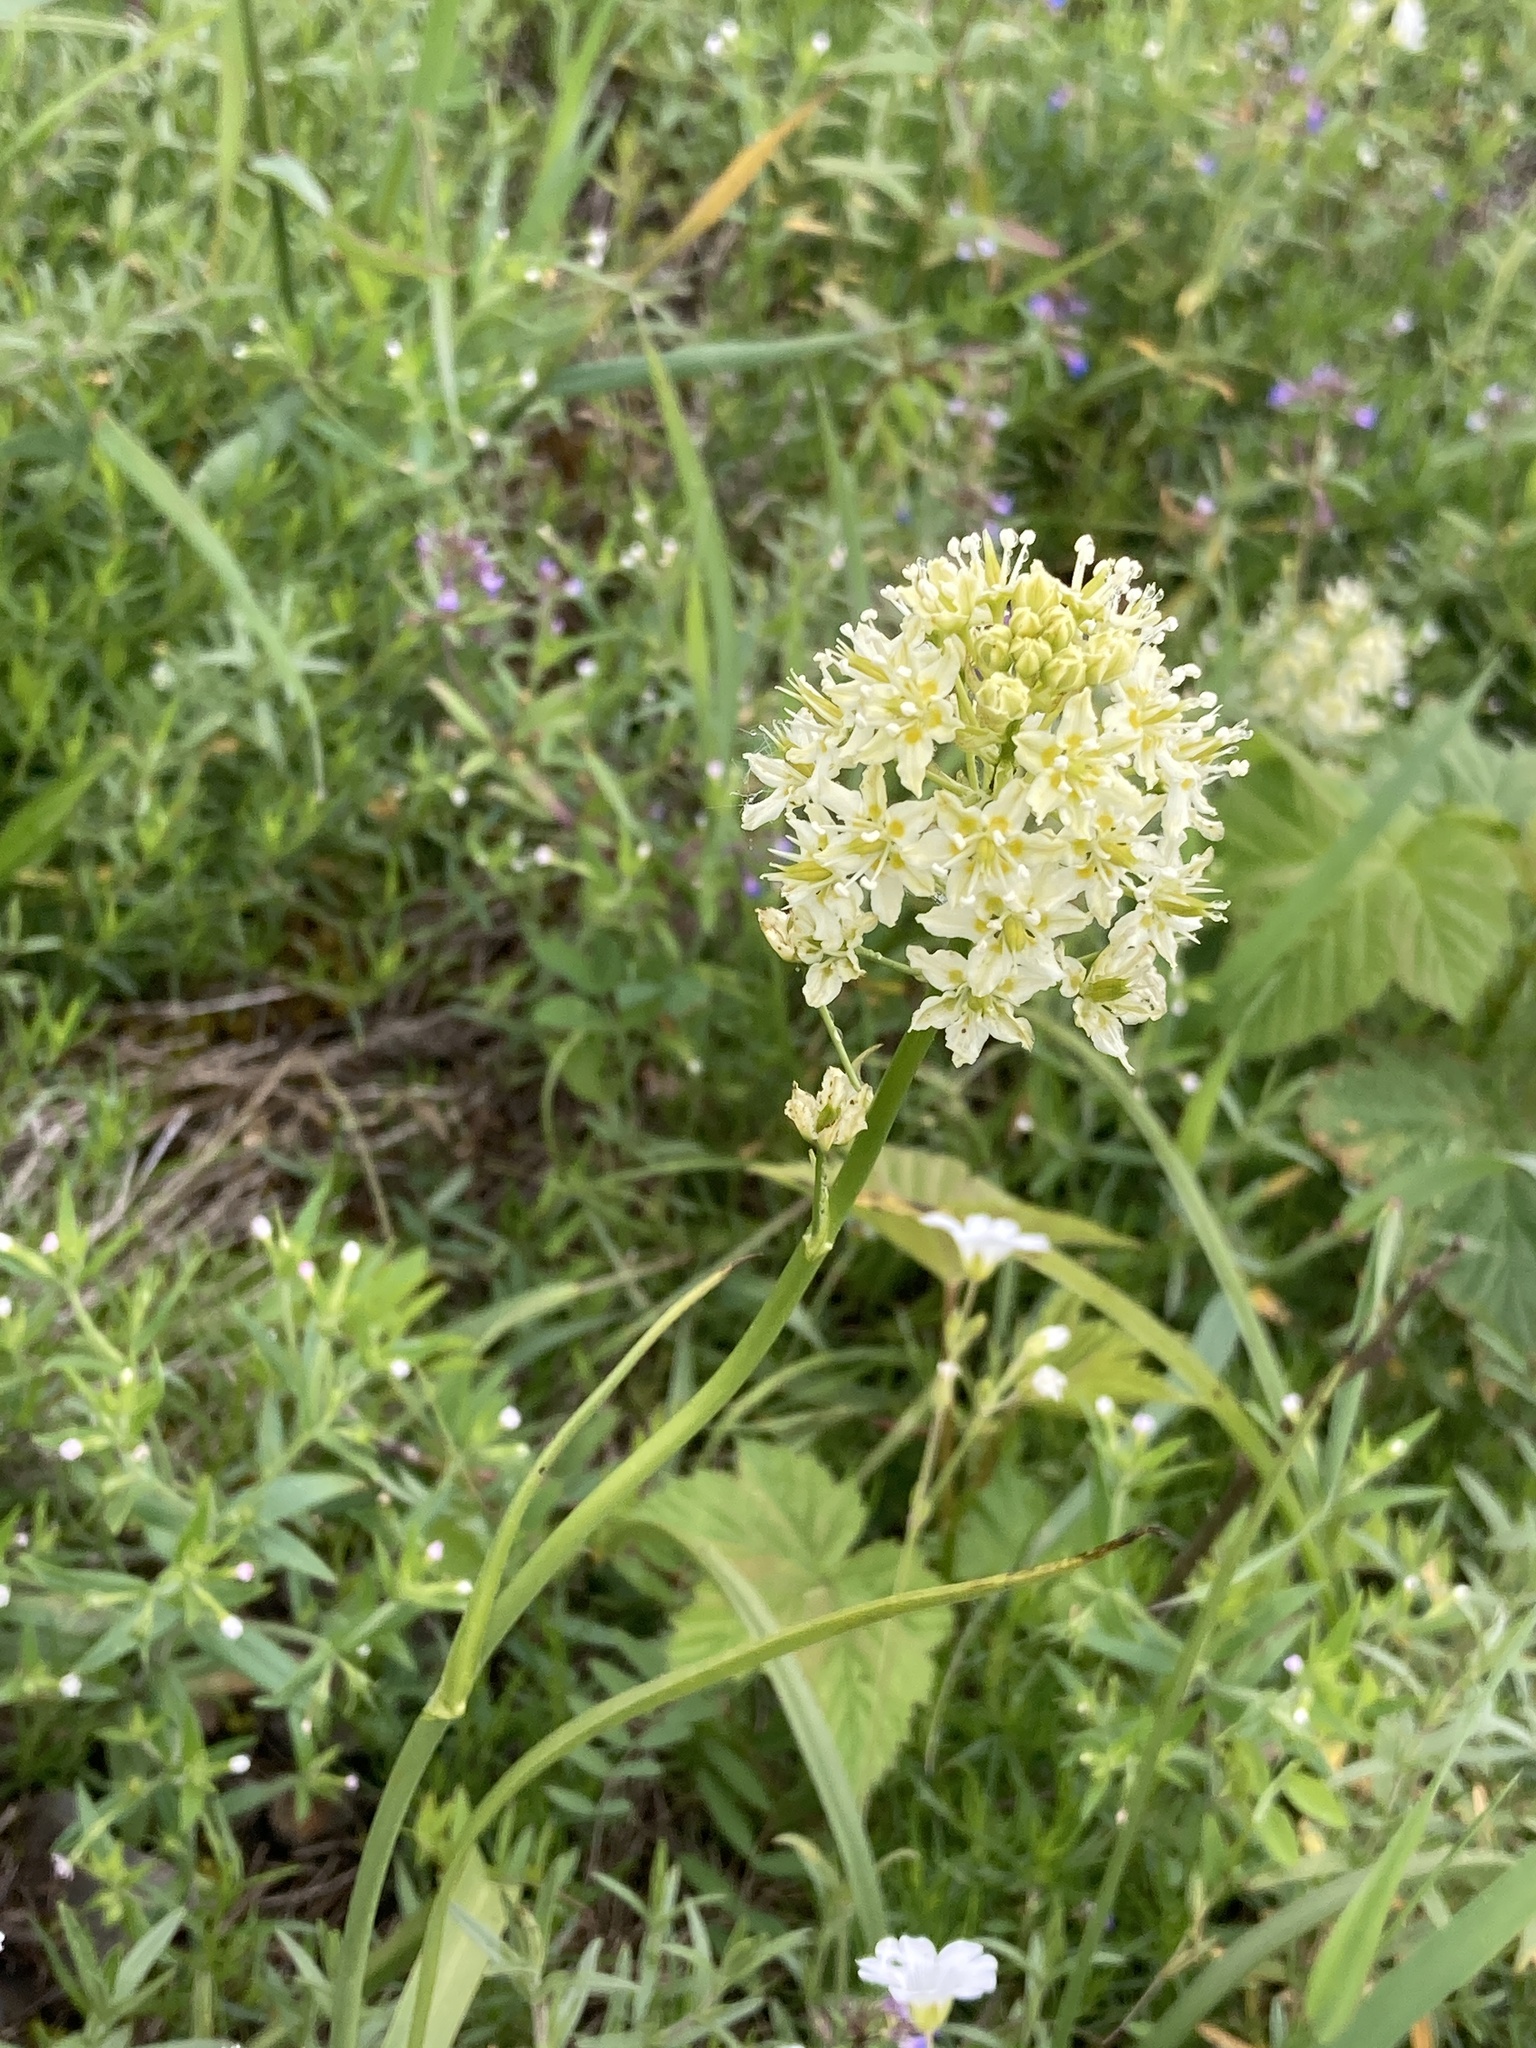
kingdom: Plantae
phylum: Tracheophyta
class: Liliopsida
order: Liliales
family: Melanthiaceae
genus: Toxicoscordion
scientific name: Toxicoscordion venenosum
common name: Meadow death camas
